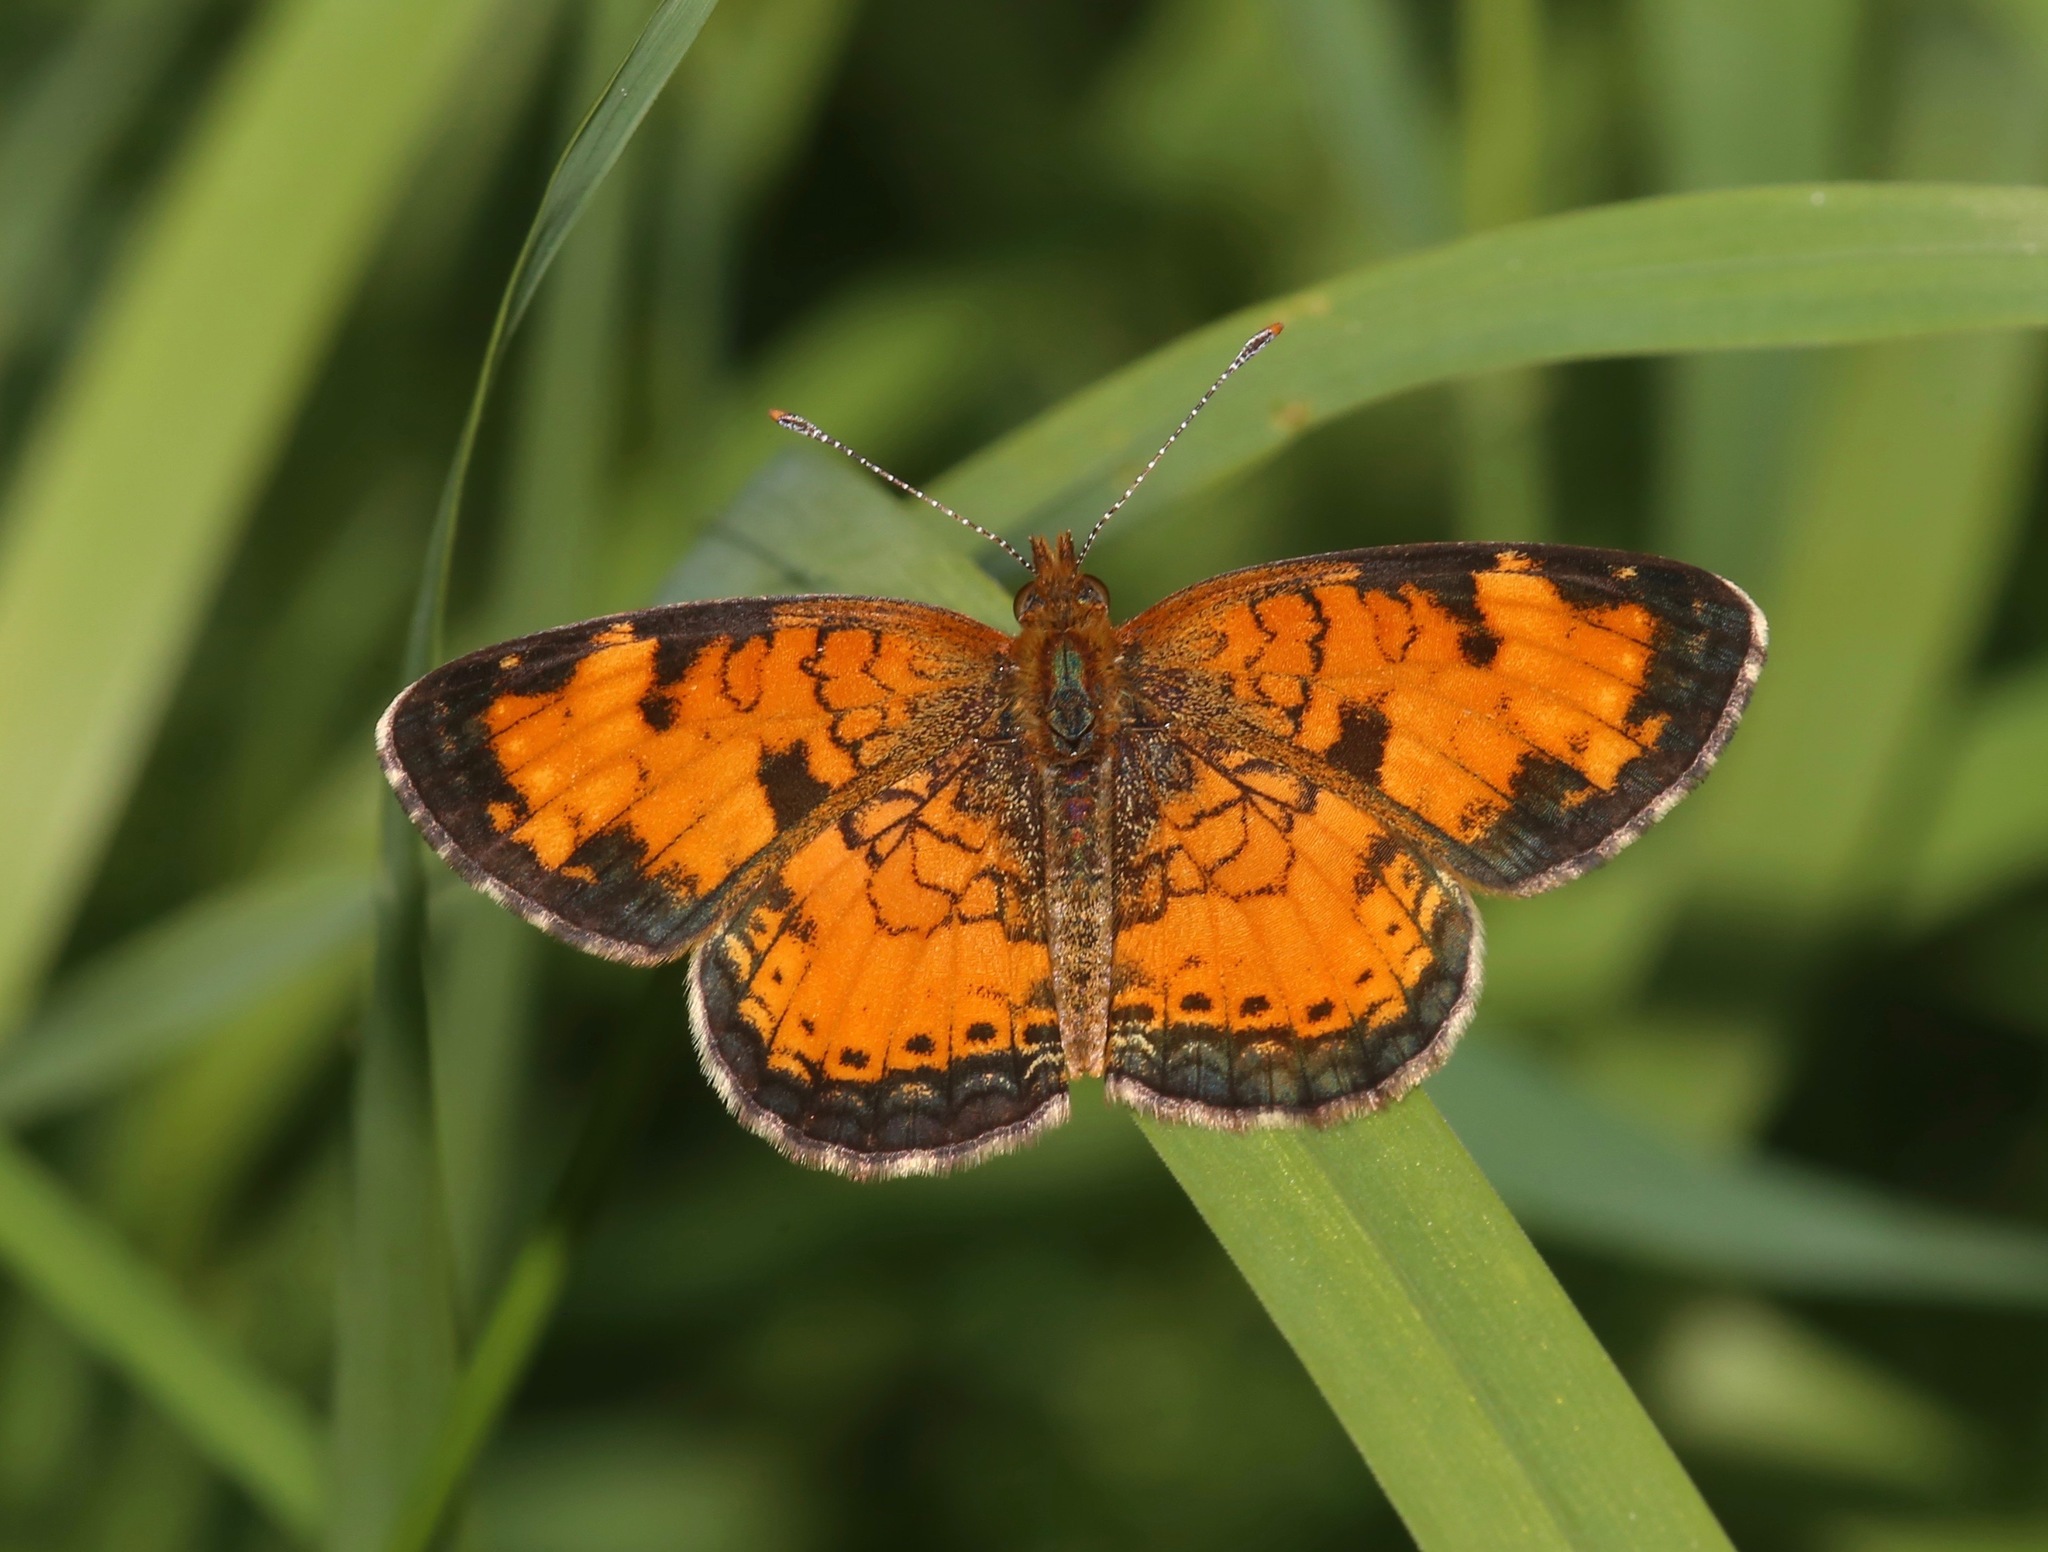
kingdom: Animalia
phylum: Arthropoda
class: Insecta
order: Lepidoptera
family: Nymphalidae
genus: Phyciodes
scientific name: Phyciodes tharos
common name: Pearl crescent
